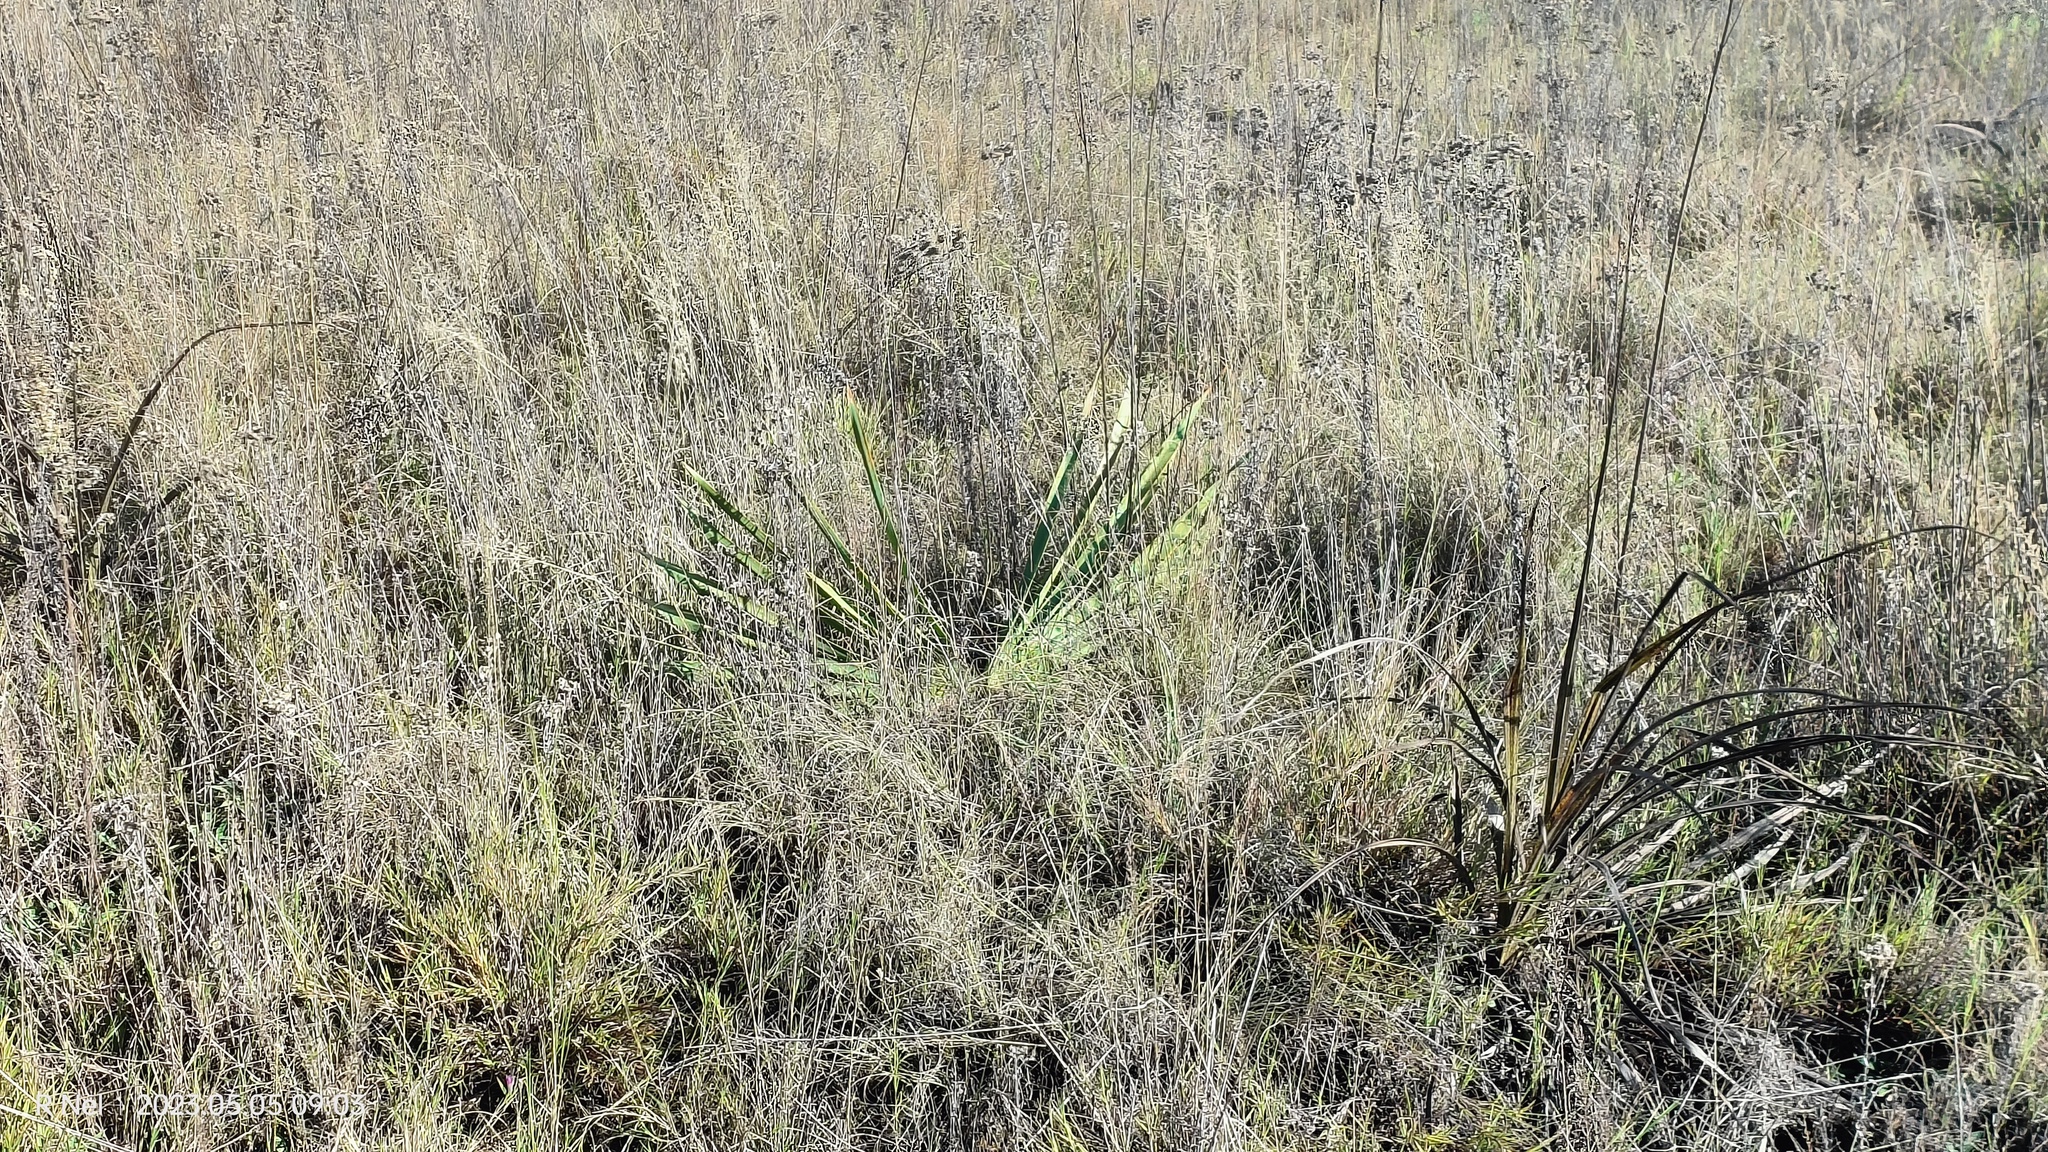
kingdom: Plantae
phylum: Tracheophyta
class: Liliopsida
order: Asparagales
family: Amaryllidaceae
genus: Boophone
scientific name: Boophone disticha
